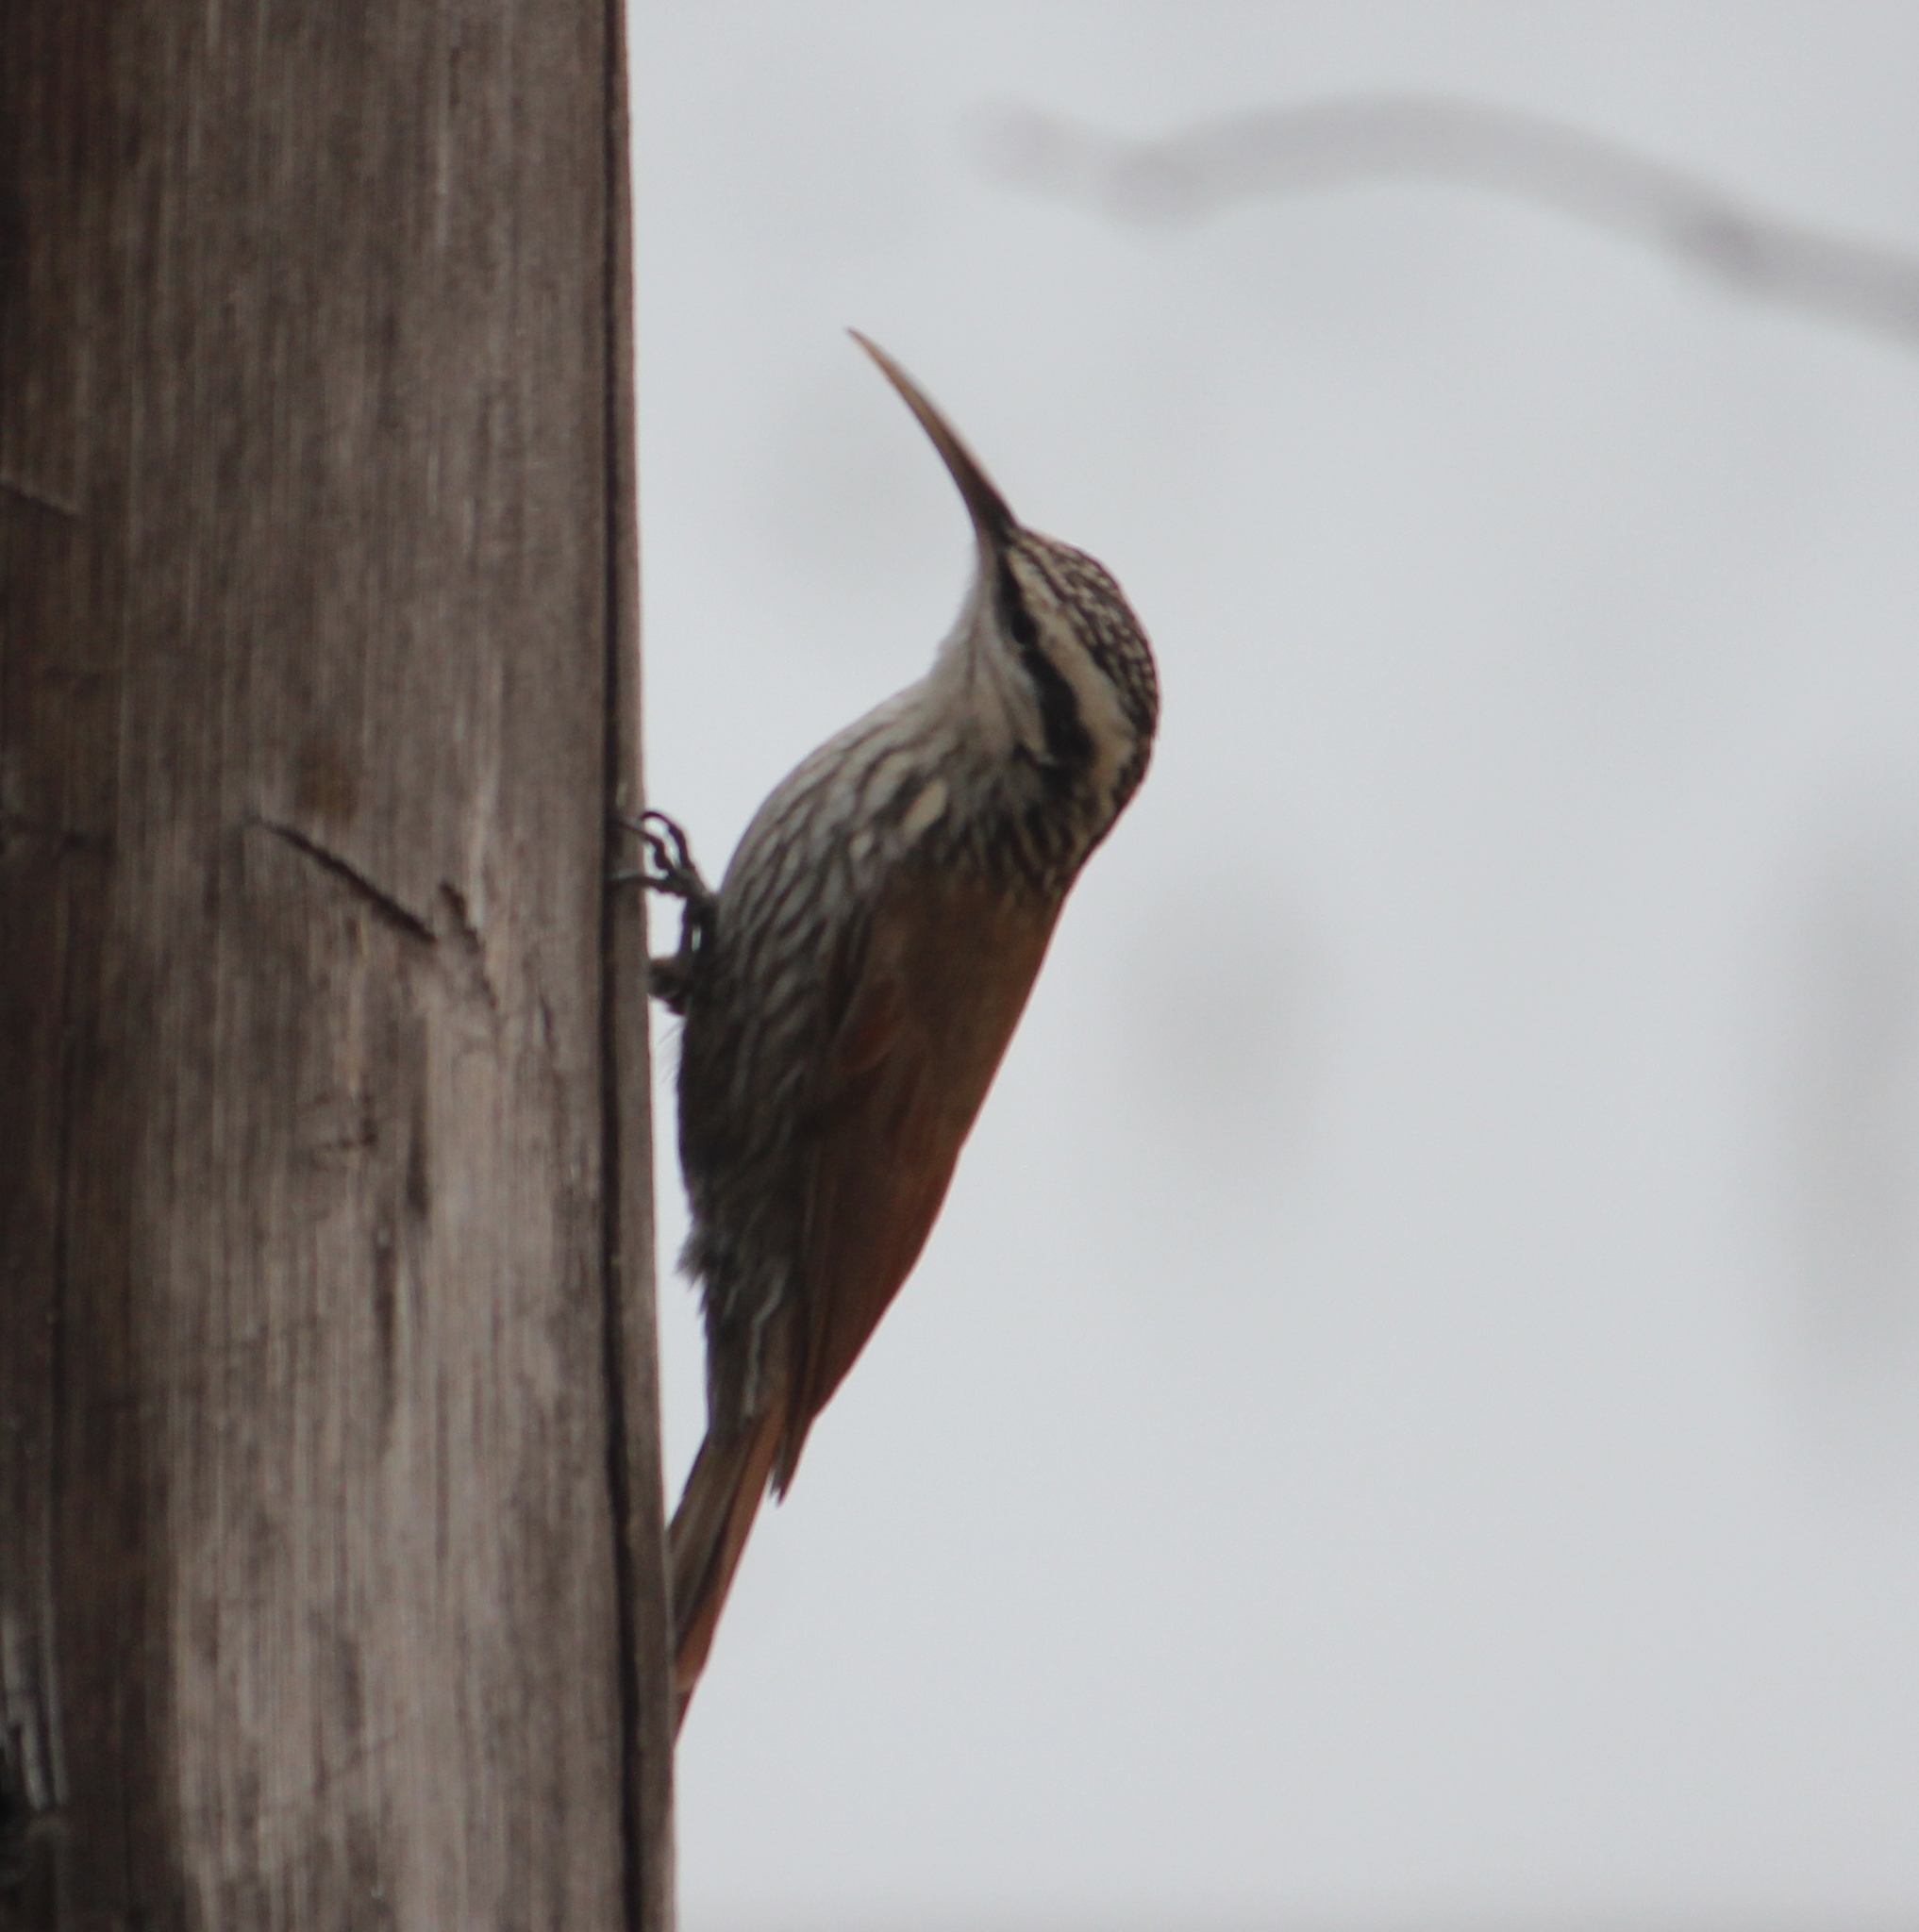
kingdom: Animalia
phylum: Chordata
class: Aves
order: Passeriformes
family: Furnariidae
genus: Lepidocolaptes
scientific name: Lepidocolaptes angustirostris
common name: Narrow-billed woodcreeper
